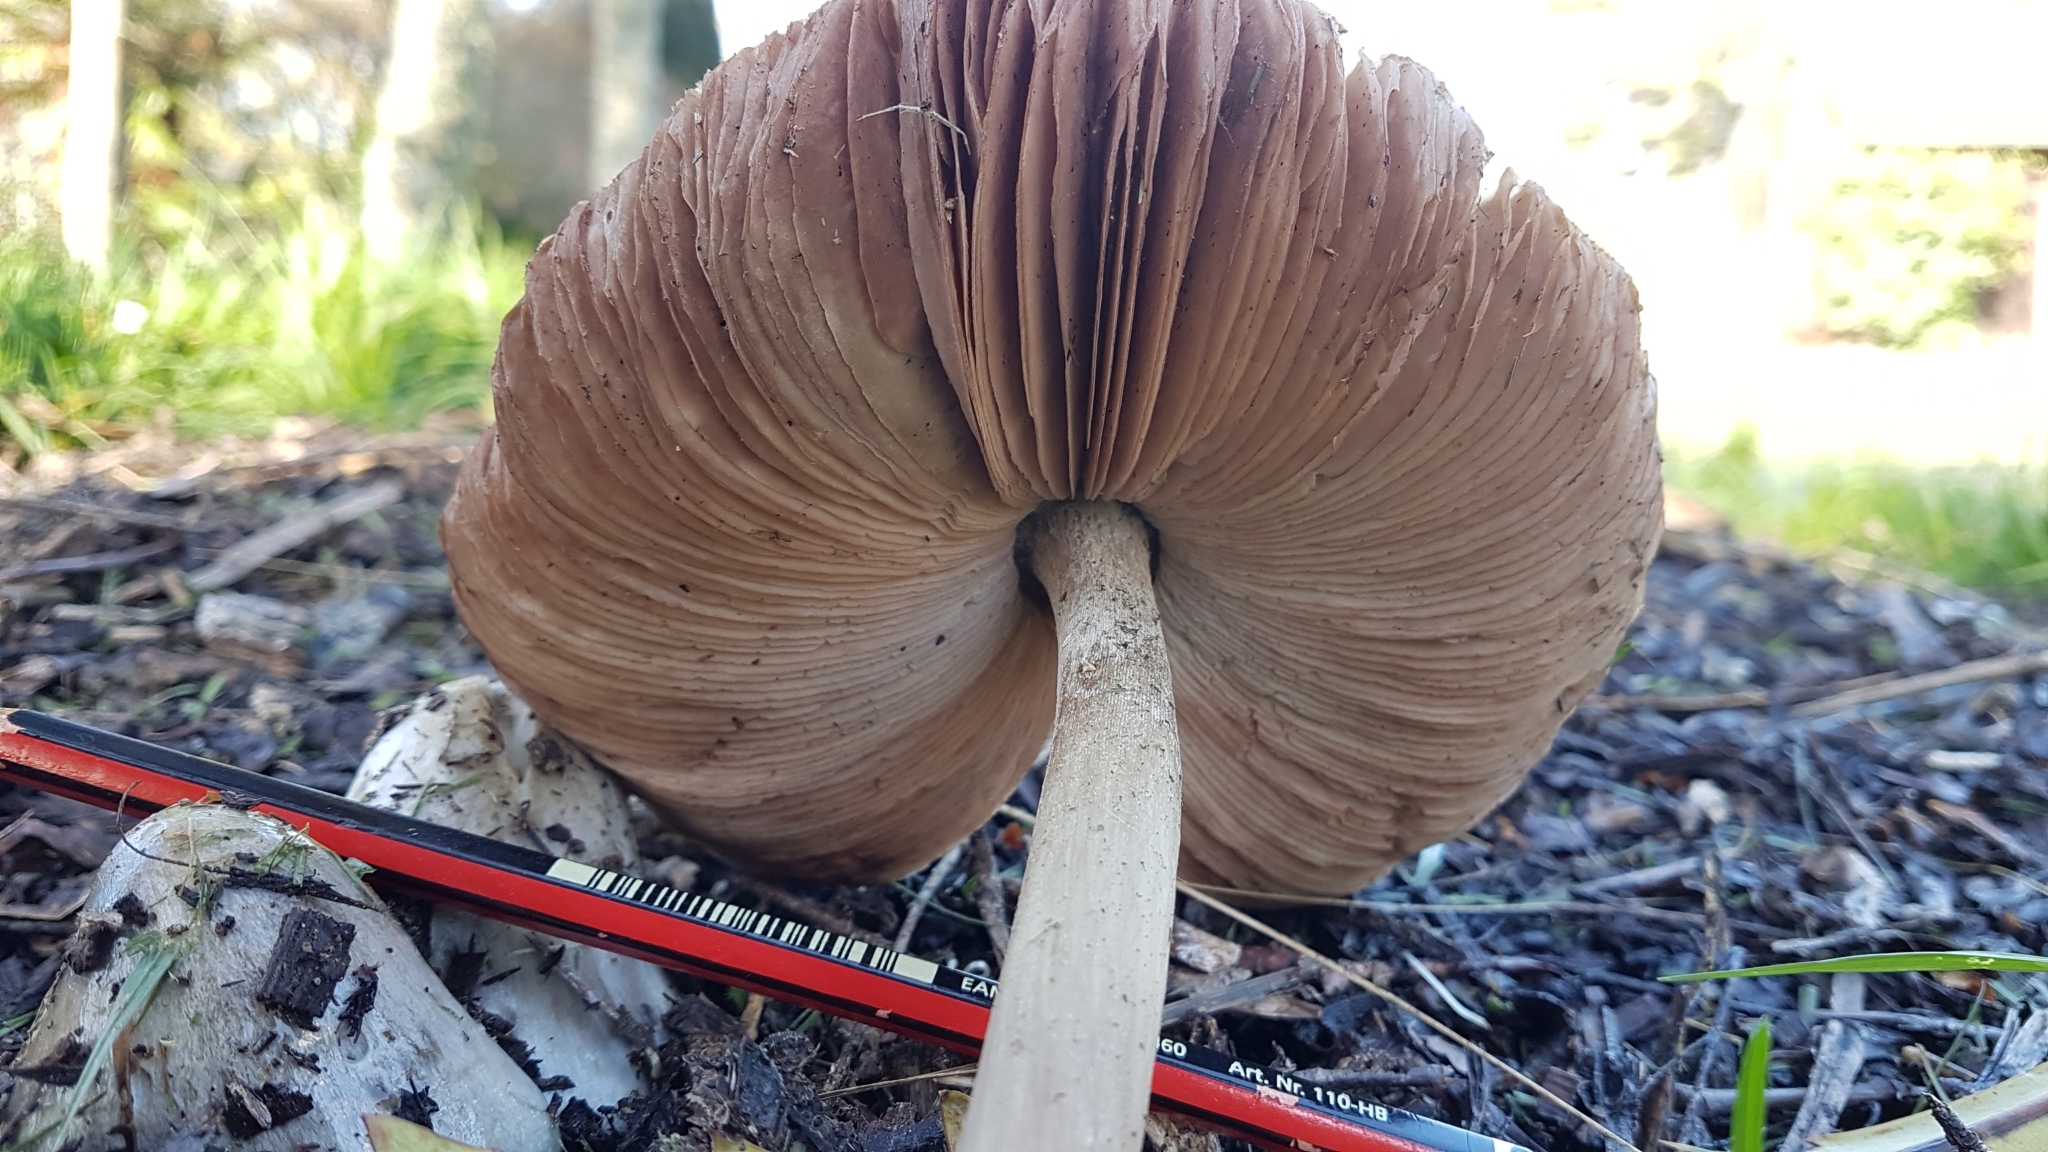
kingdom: Fungi
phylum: Basidiomycota
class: Agaricomycetes
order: Agaricales
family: Pluteaceae
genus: Volvopluteus
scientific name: Volvopluteus gloiocephalus
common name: Stubble rosegill
